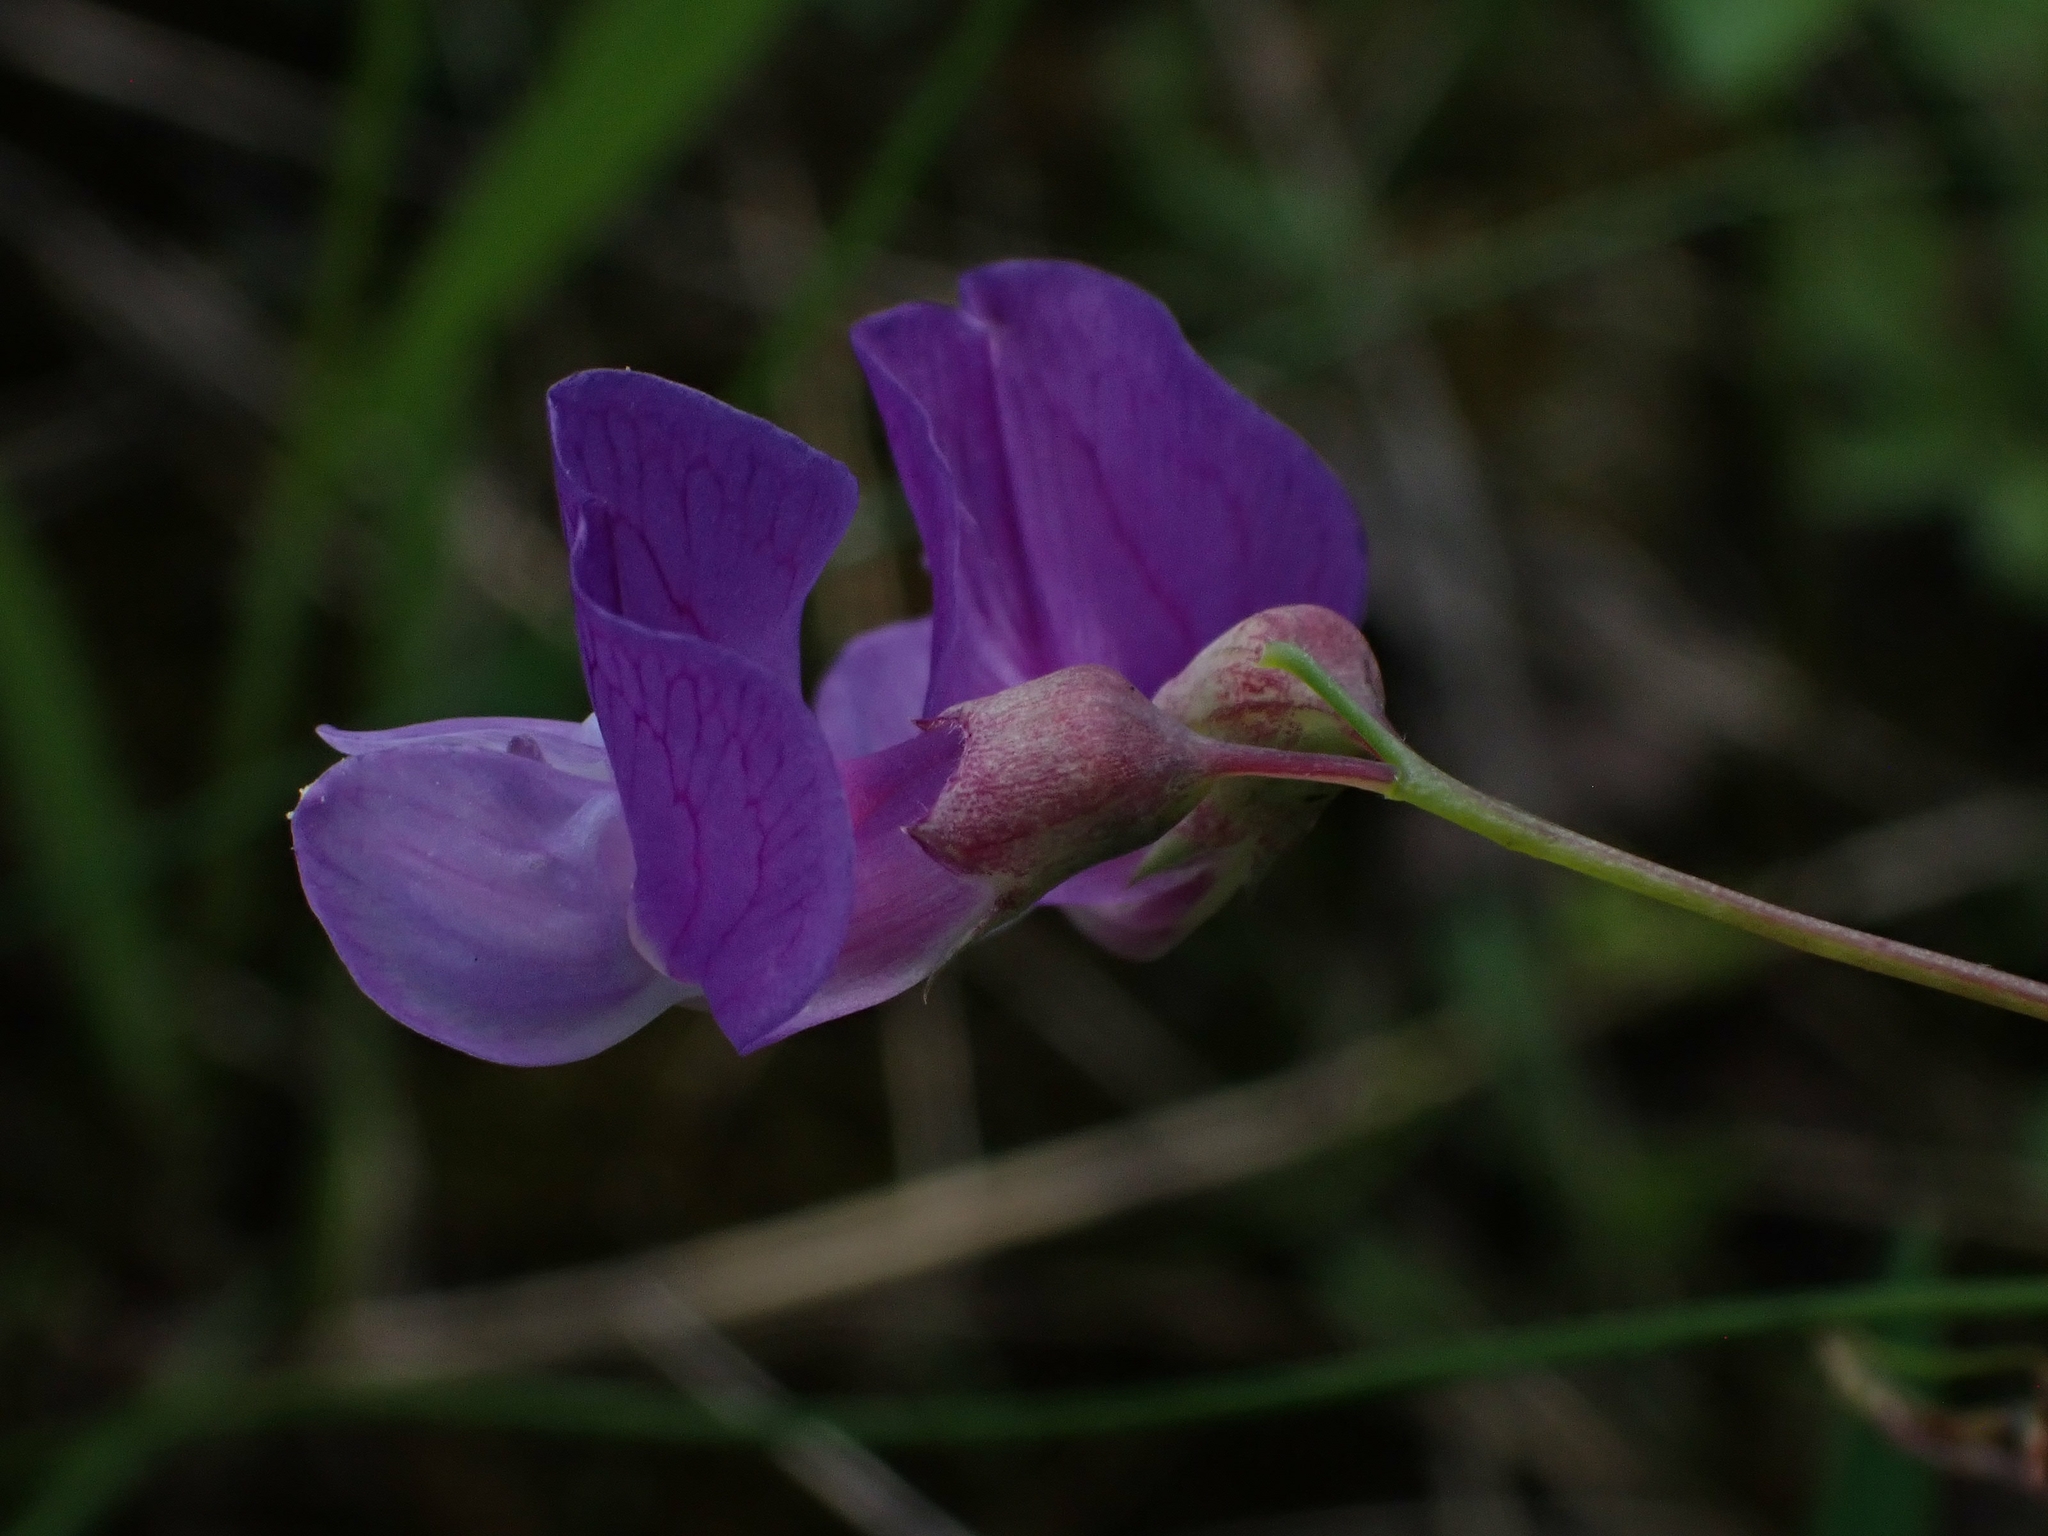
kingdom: Plantae
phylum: Tracheophyta
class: Magnoliopsida
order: Fabales
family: Fabaceae
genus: Lathyrus
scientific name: Lathyrus palustris
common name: Marsh pea
